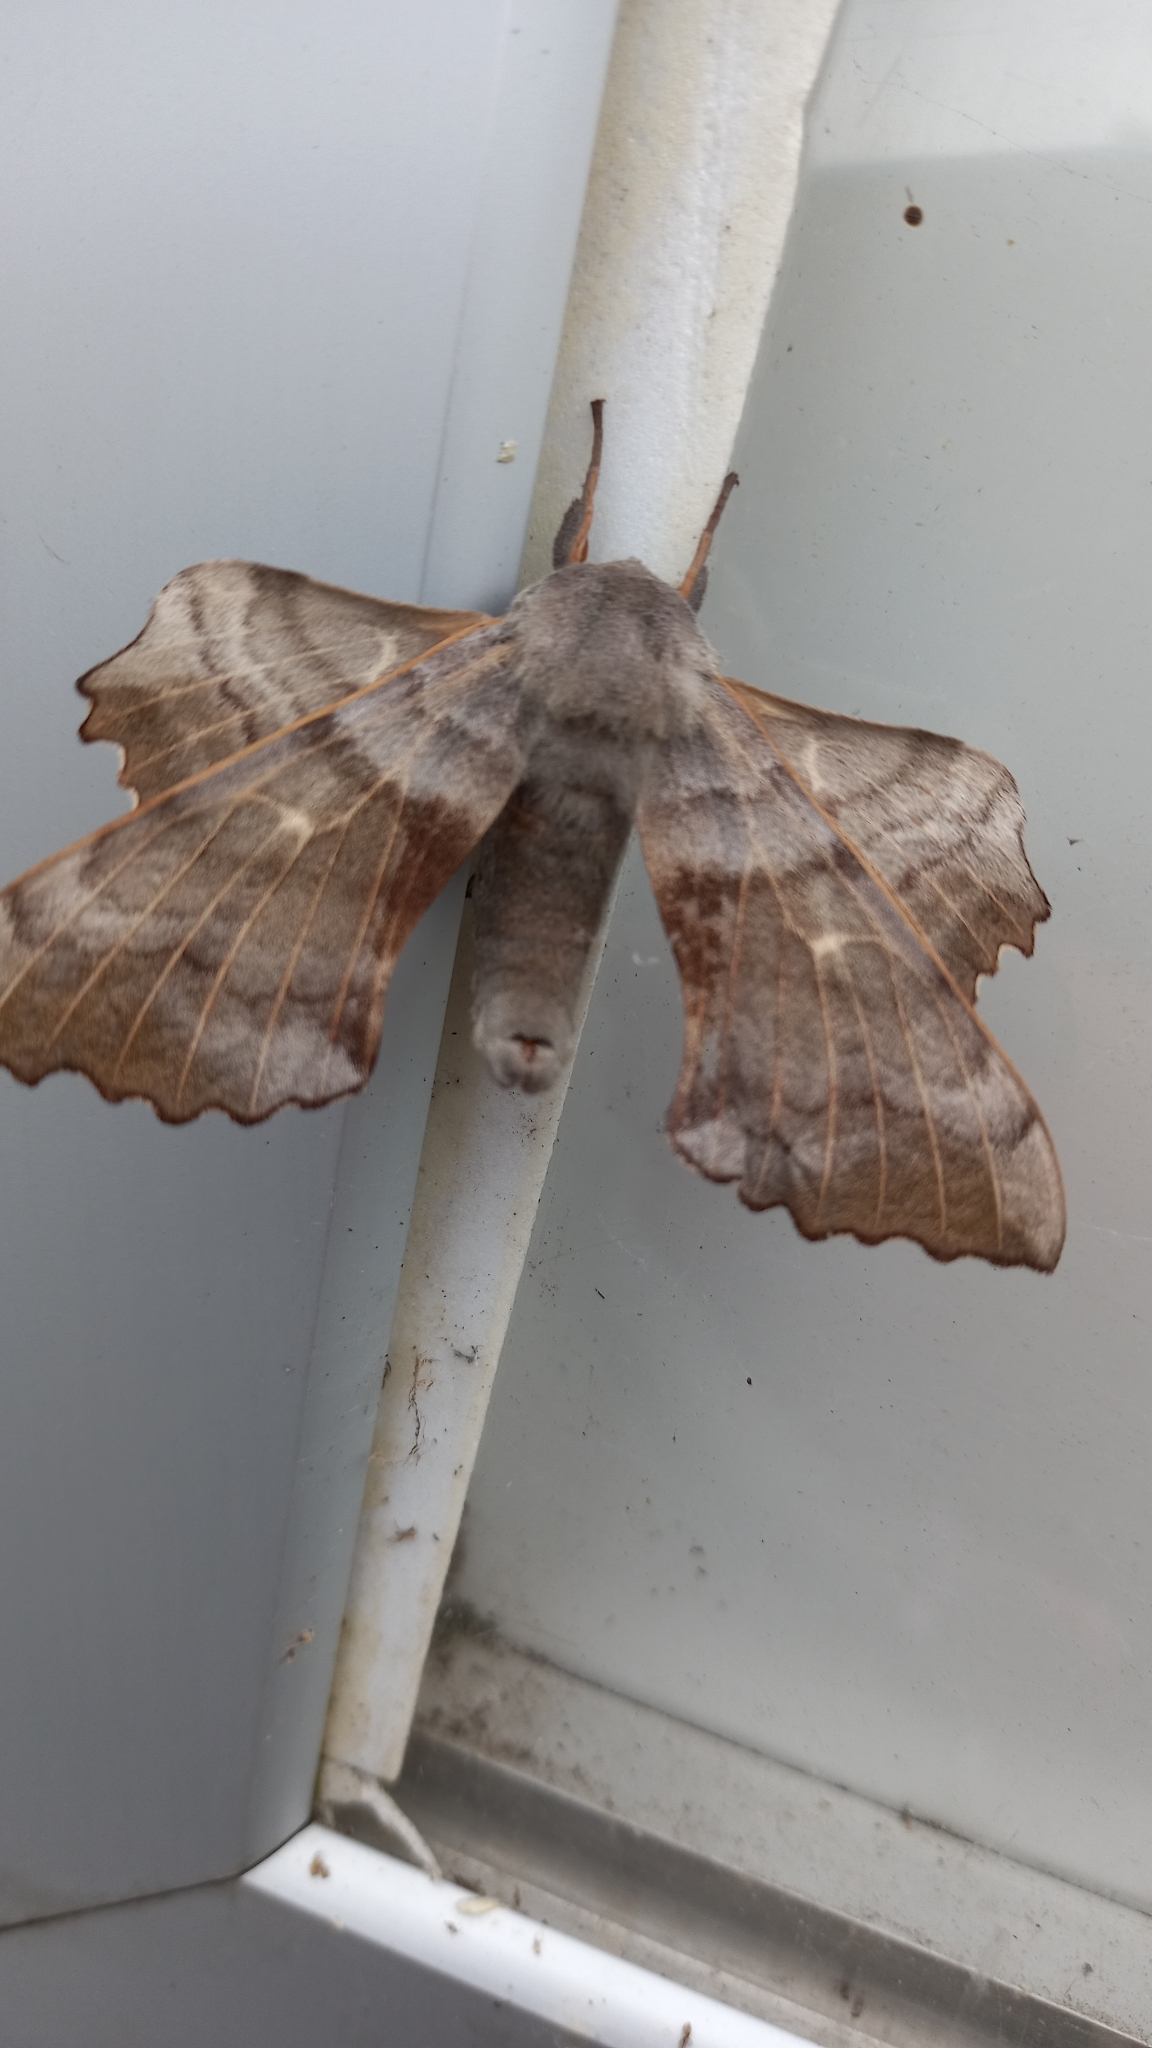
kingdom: Animalia
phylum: Arthropoda
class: Insecta
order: Lepidoptera
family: Sphingidae
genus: Laothoe
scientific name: Laothoe populi
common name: Poplar hawk-moth
